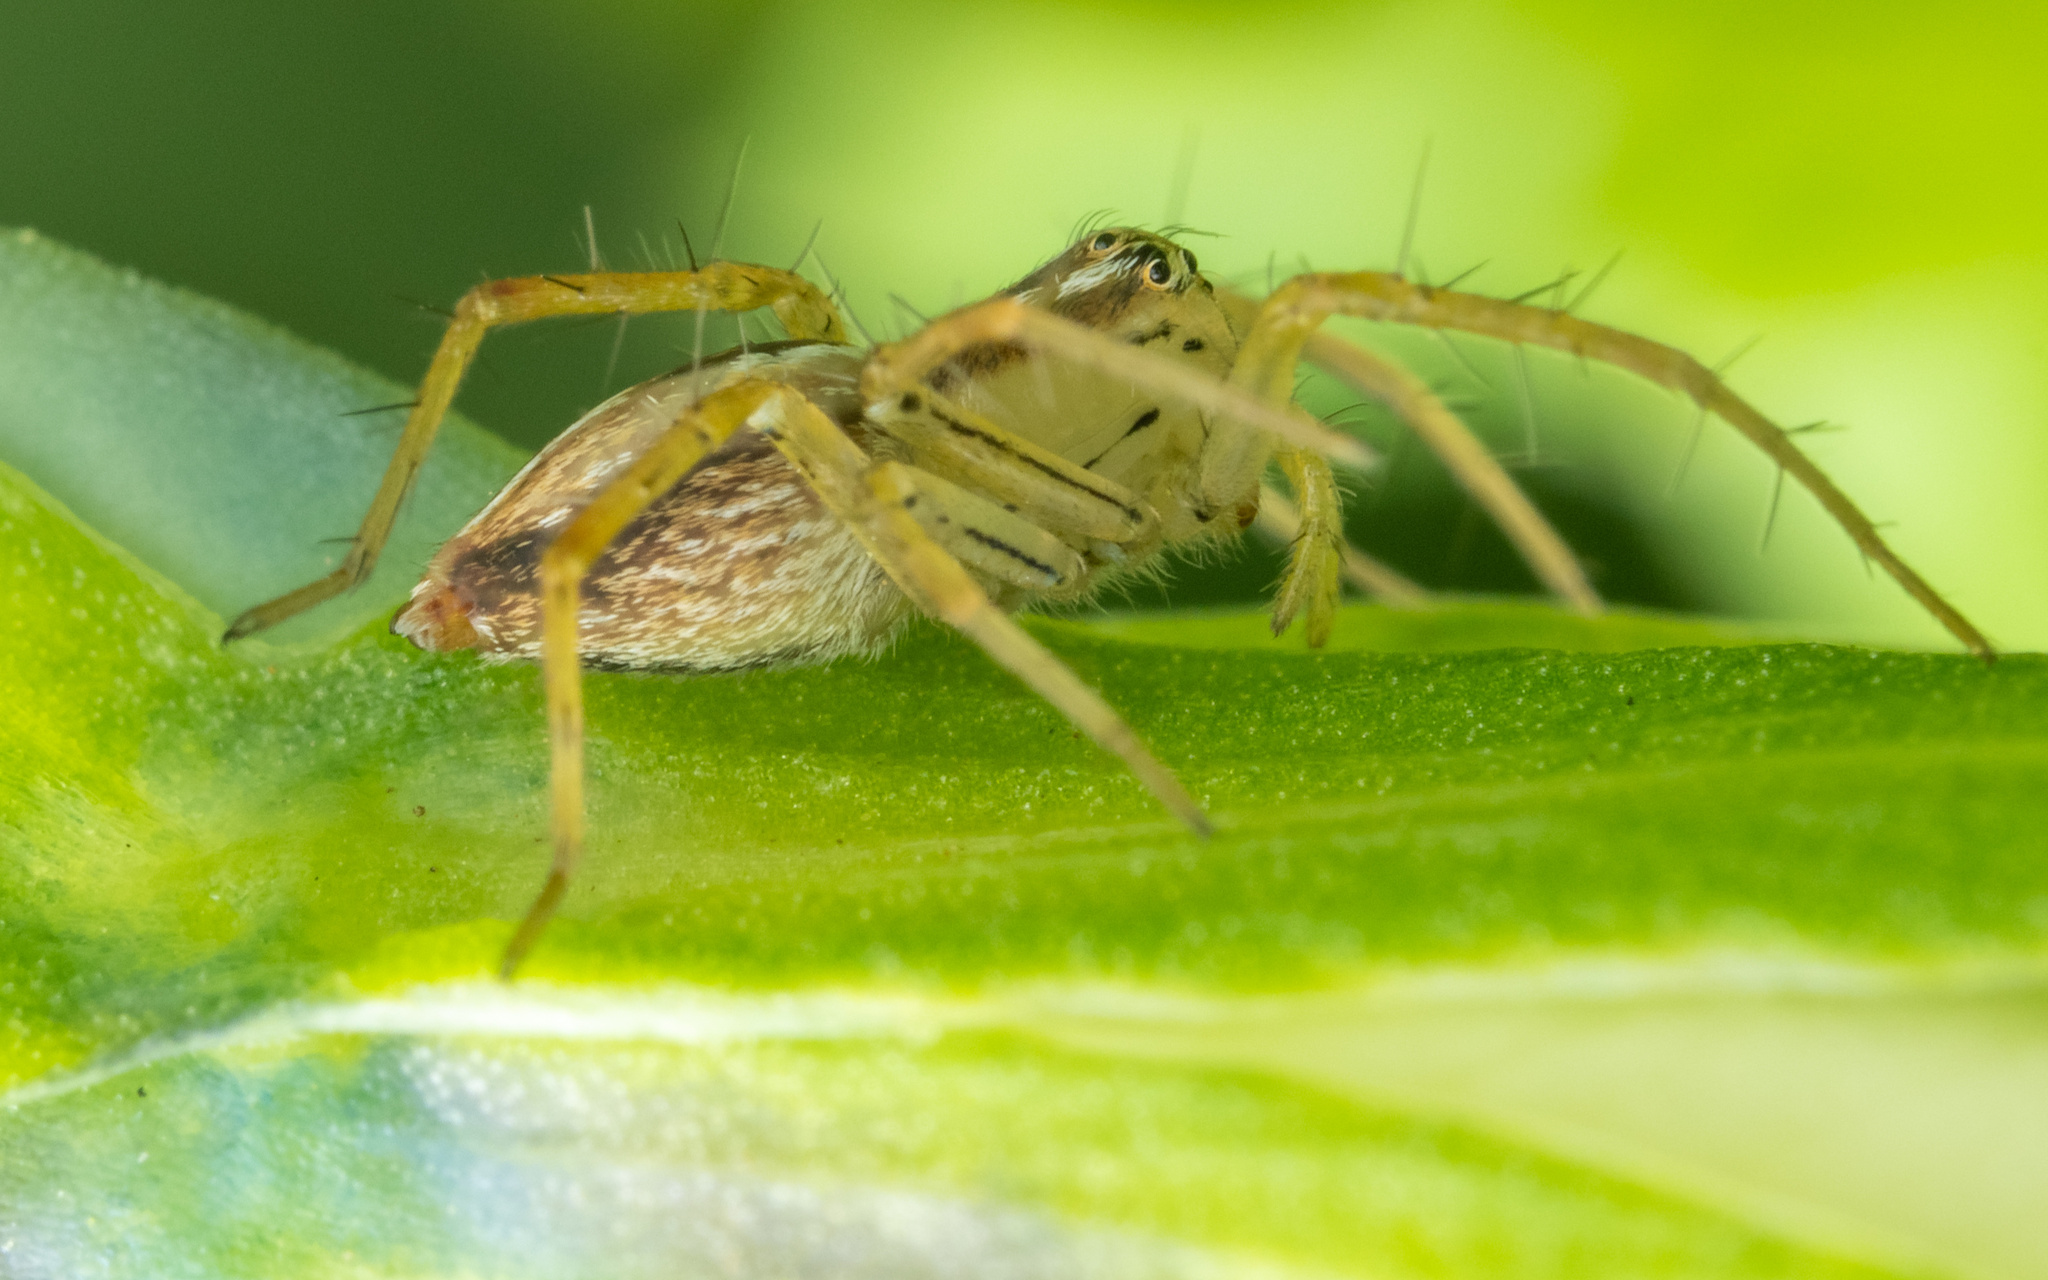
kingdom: Animalia
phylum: Arthropoda
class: Arachnida
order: Araneae
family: Oxyopidae
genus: Oxyopes
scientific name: Oxyopes salticus
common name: Lynx spiders
